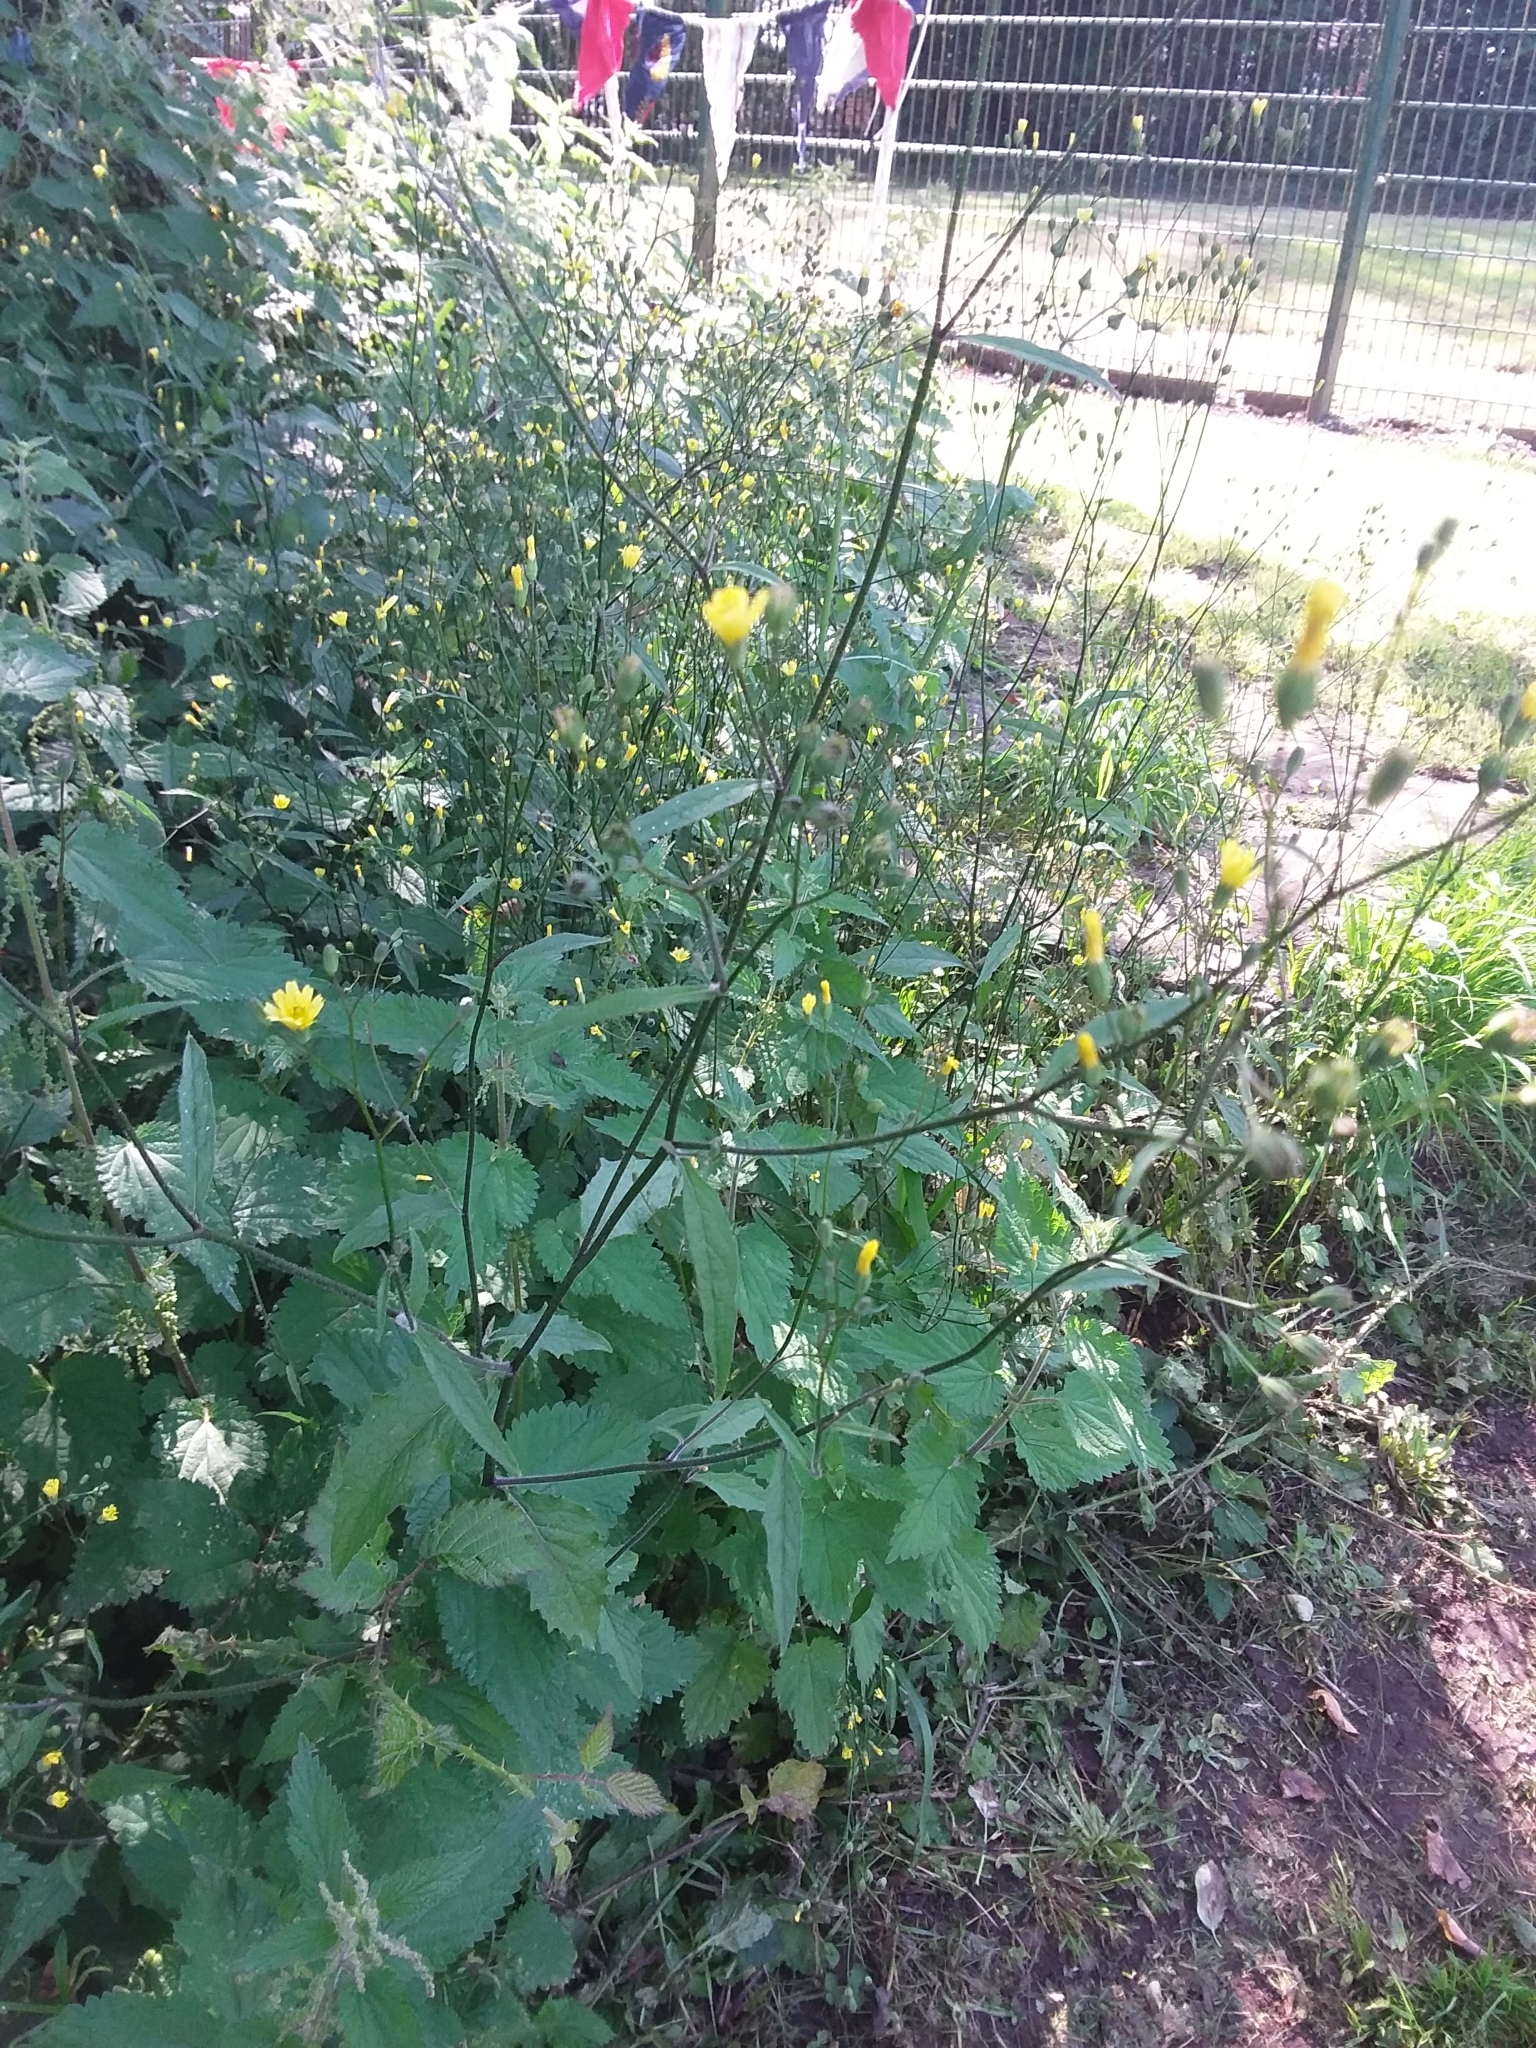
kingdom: Plantae
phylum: Tracheophyta
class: Magnoliopsida
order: Asterales
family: Asteraceae
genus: Lapsana
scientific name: Lapsana communis
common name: Nipplewort
